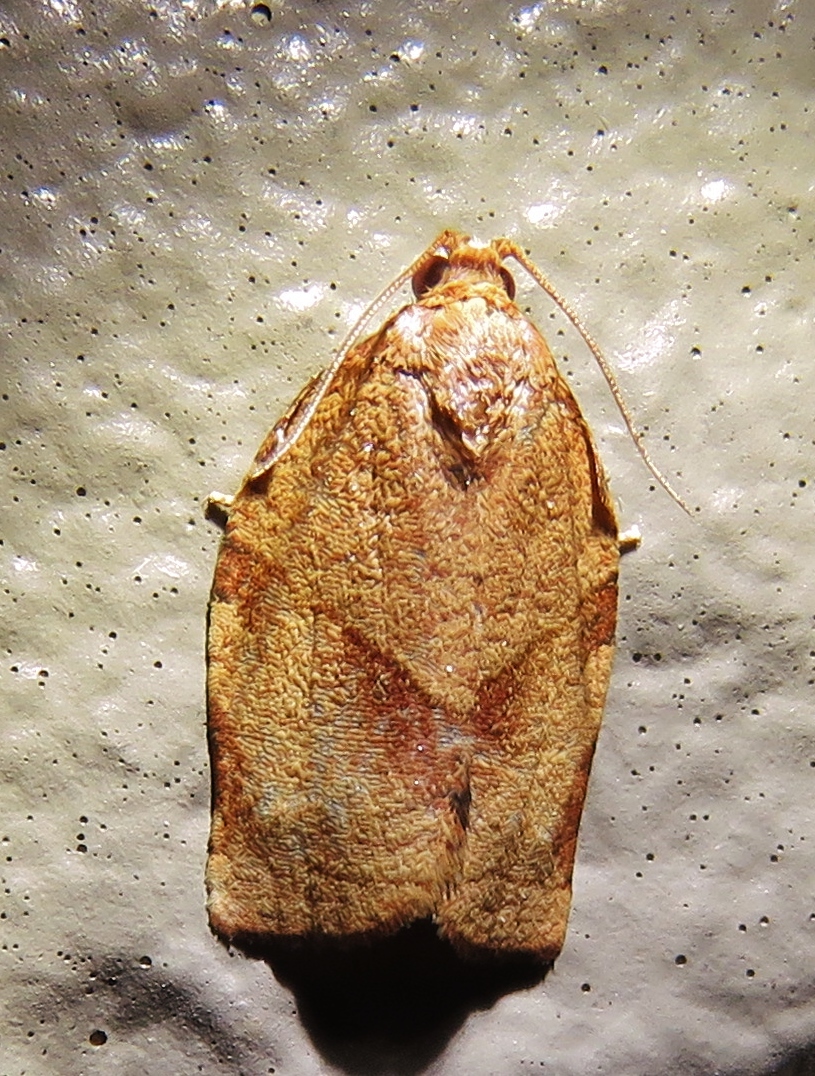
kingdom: Animalia
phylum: Arthropoda
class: Insecta
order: Lepidoptera
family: Tortricidae
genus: Choristoneura
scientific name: Choristoneura rosaceana
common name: Oblique-banded leafroller moth
